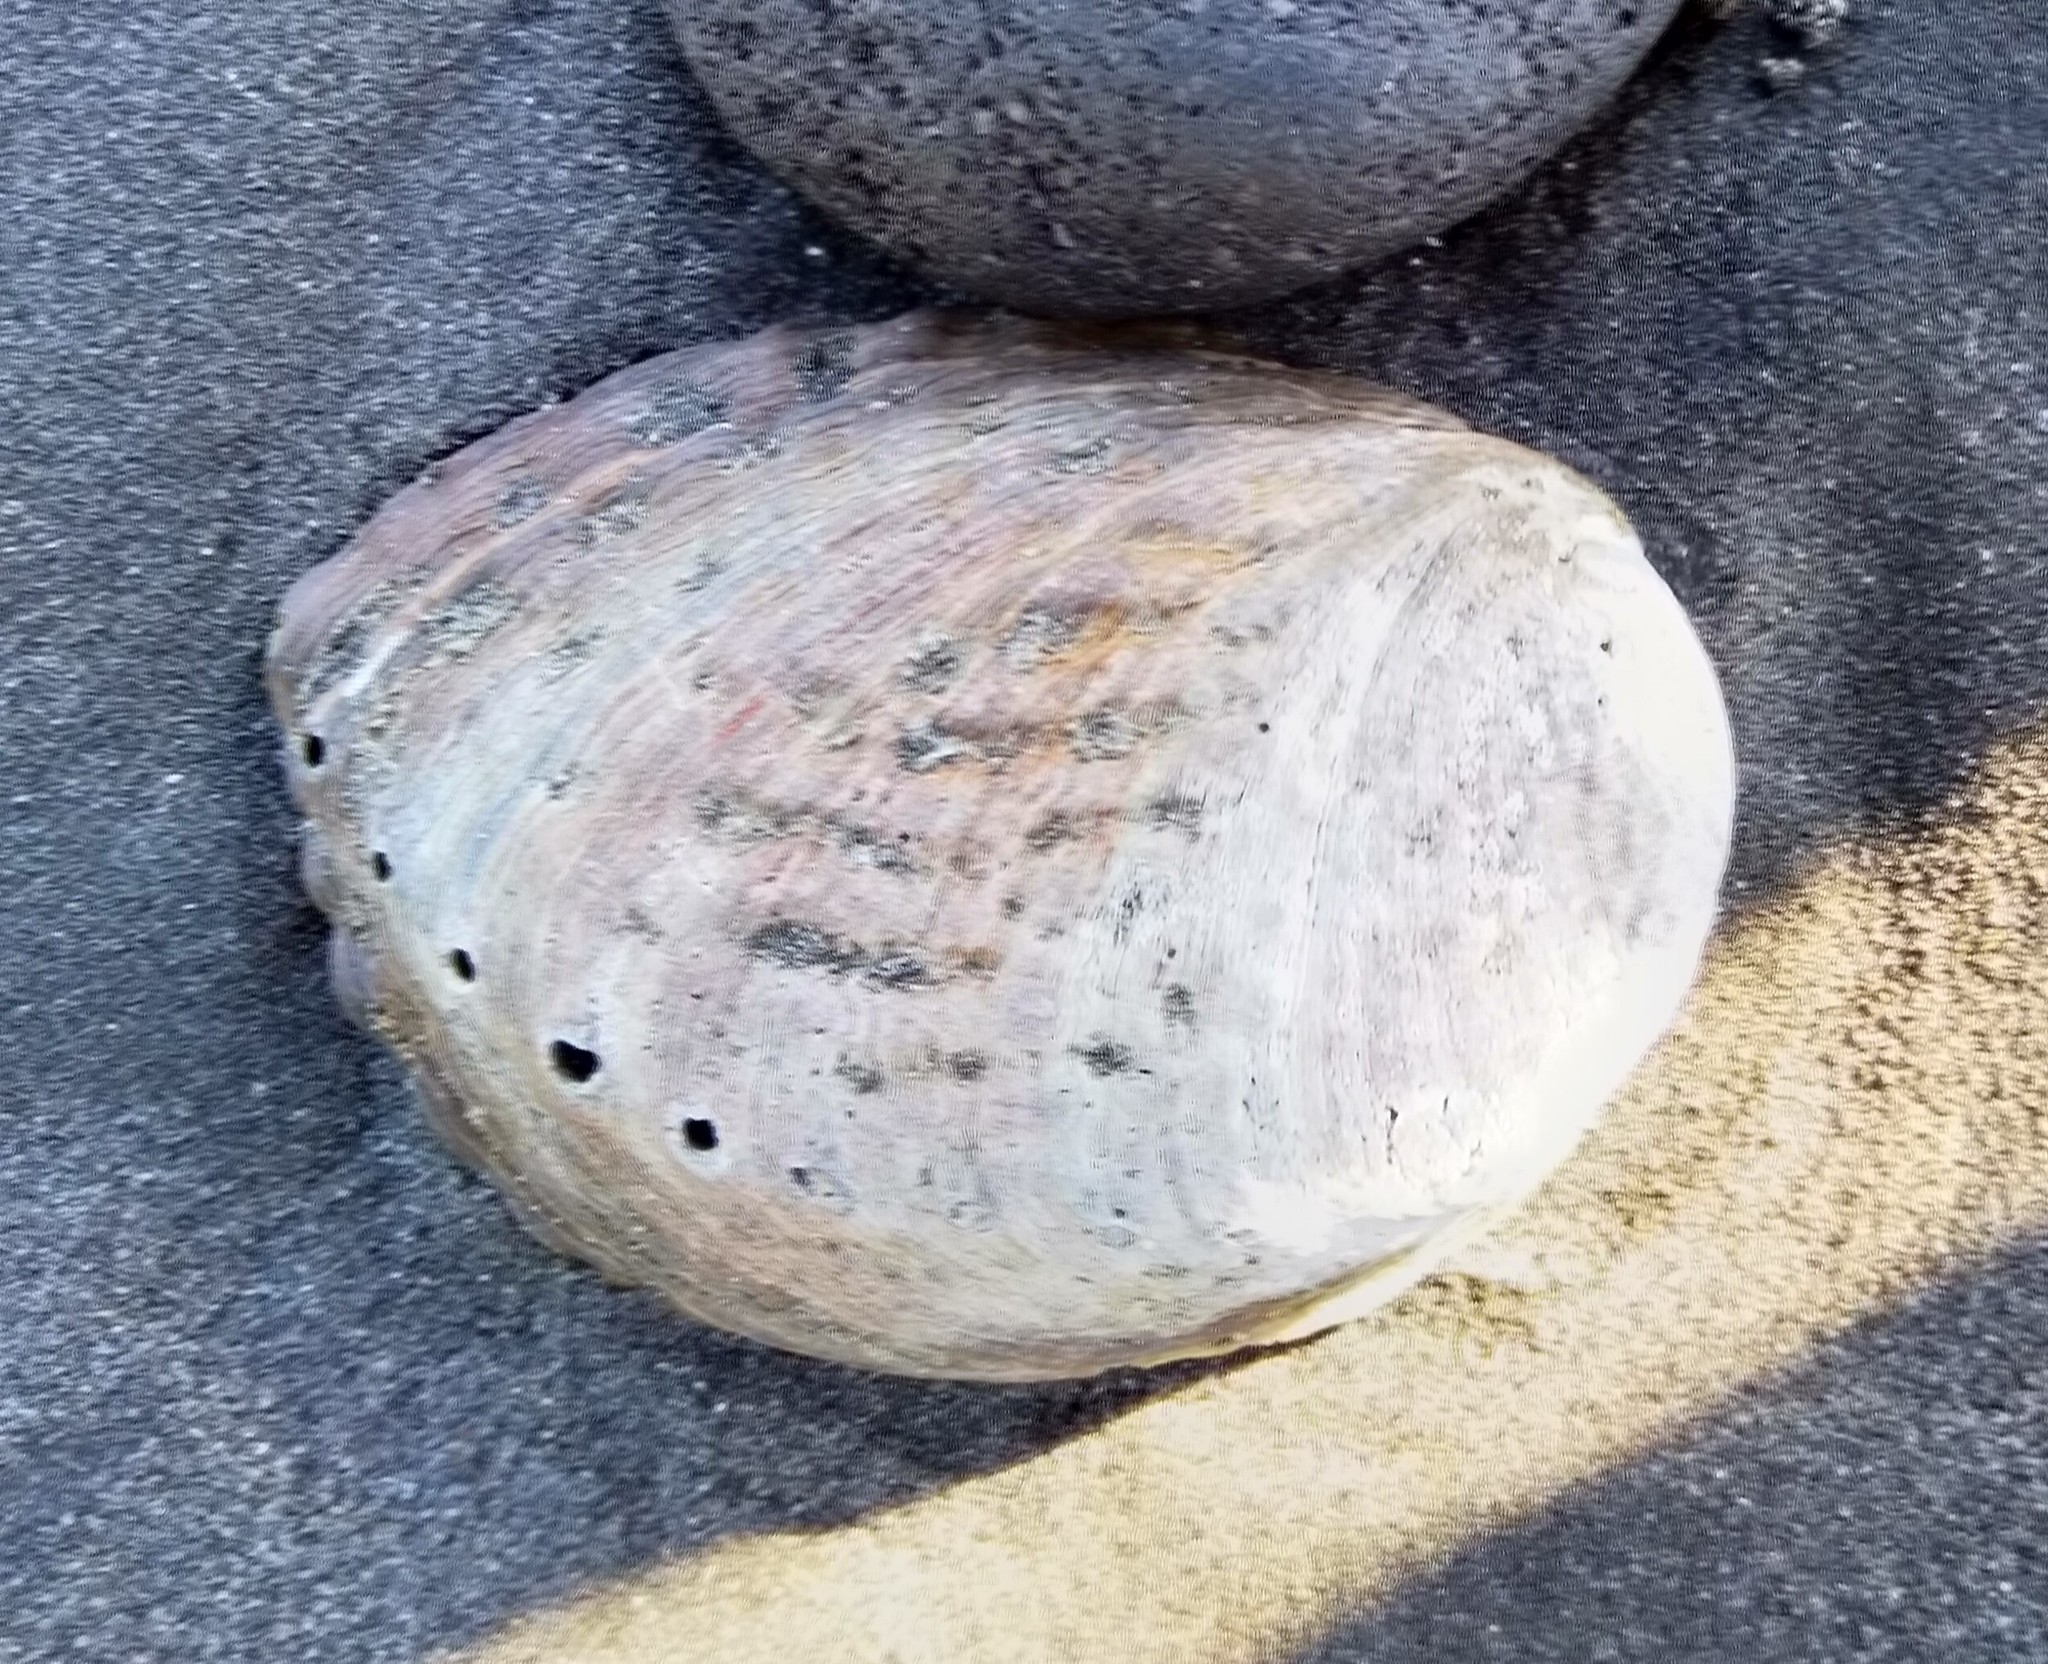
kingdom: Animalia
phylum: Mollusca
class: Gastropoda
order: Lepetellida
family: Haliotidae
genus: Haliotis
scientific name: Haliotis iris
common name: Abalone
